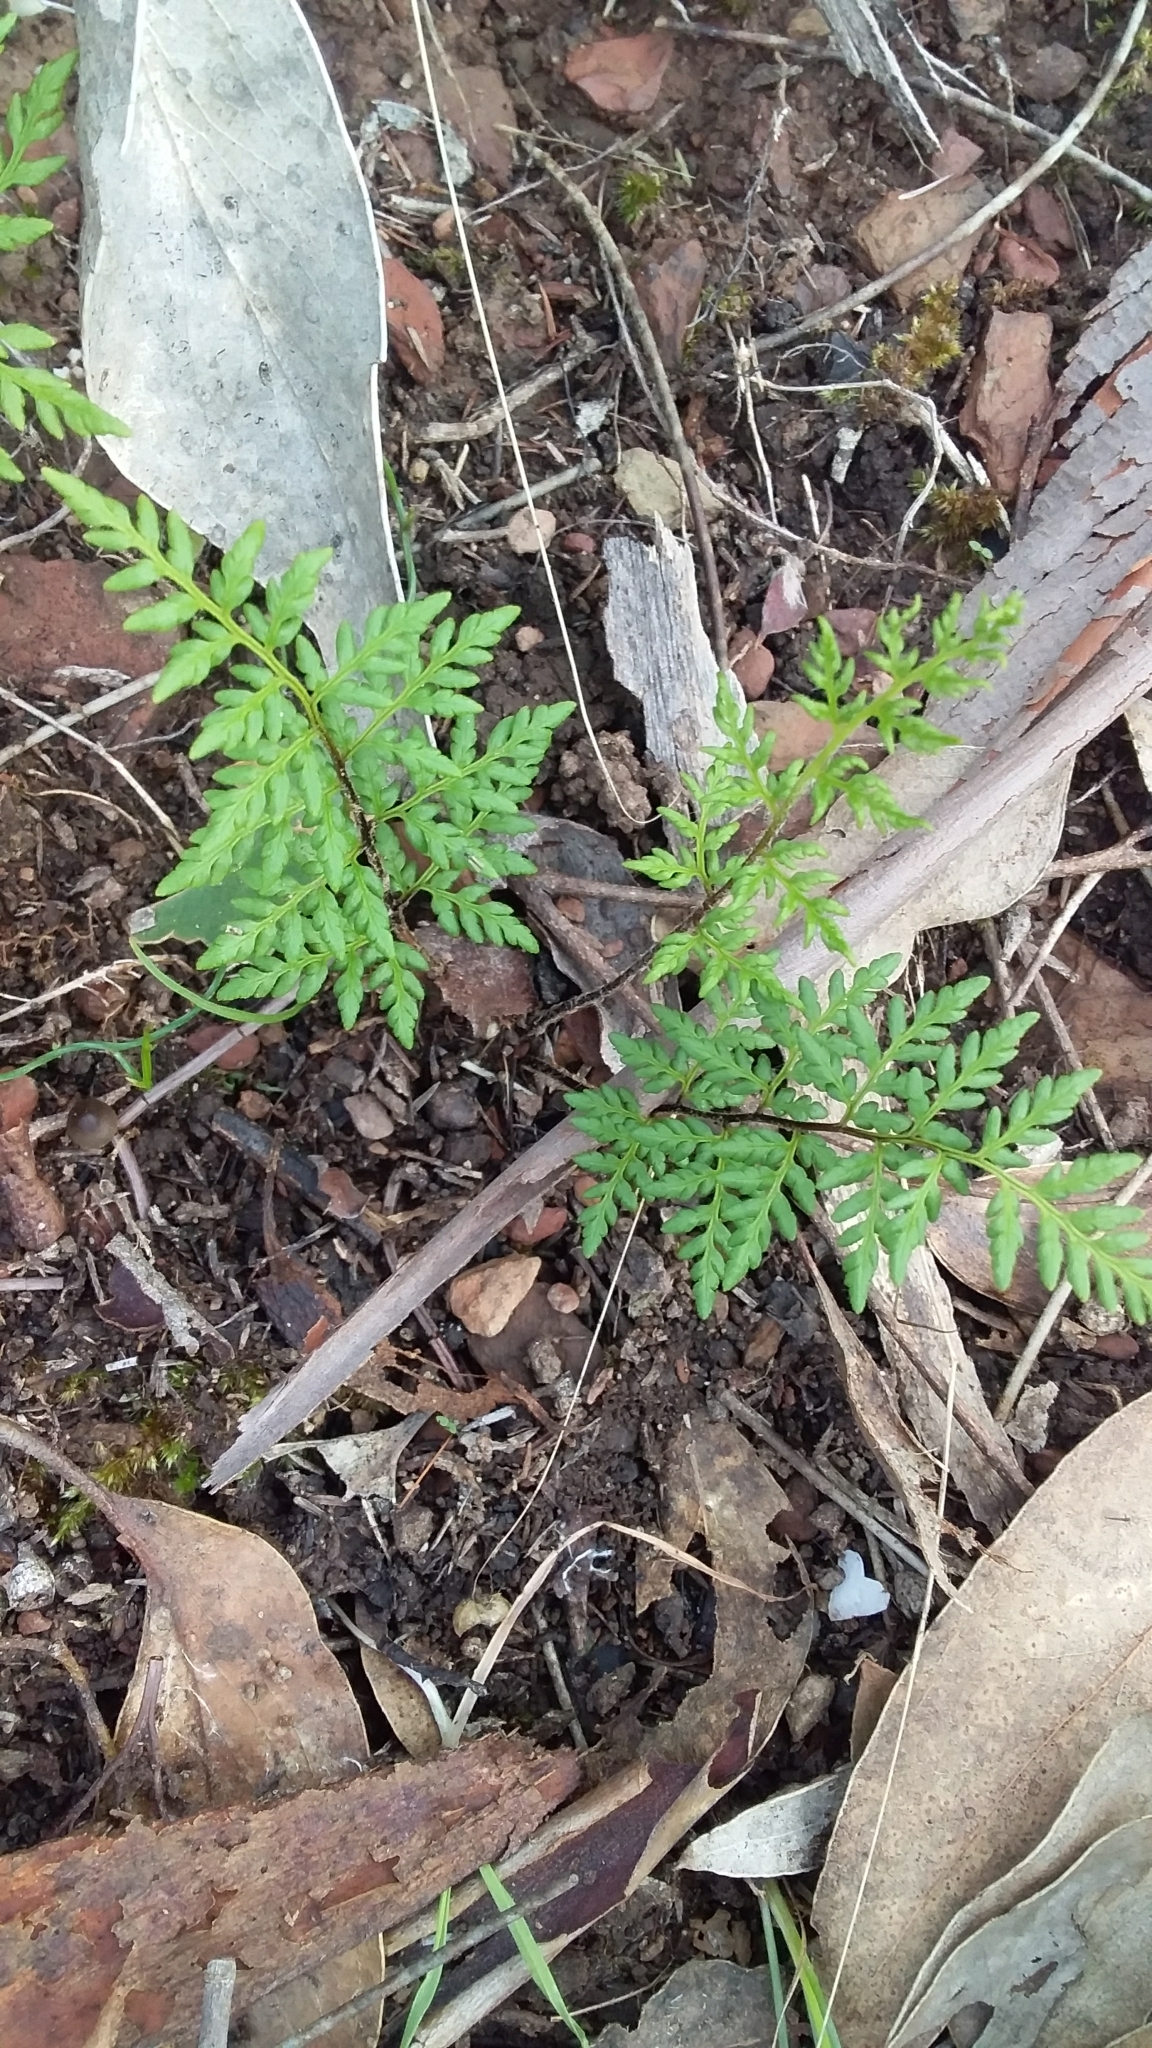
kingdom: Plantae
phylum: Tracheophyta
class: Polypodiopsida
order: Polypodiales
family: Pteridaceae
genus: Cheilanthes
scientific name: Cheilanthes austrotenuifolia
